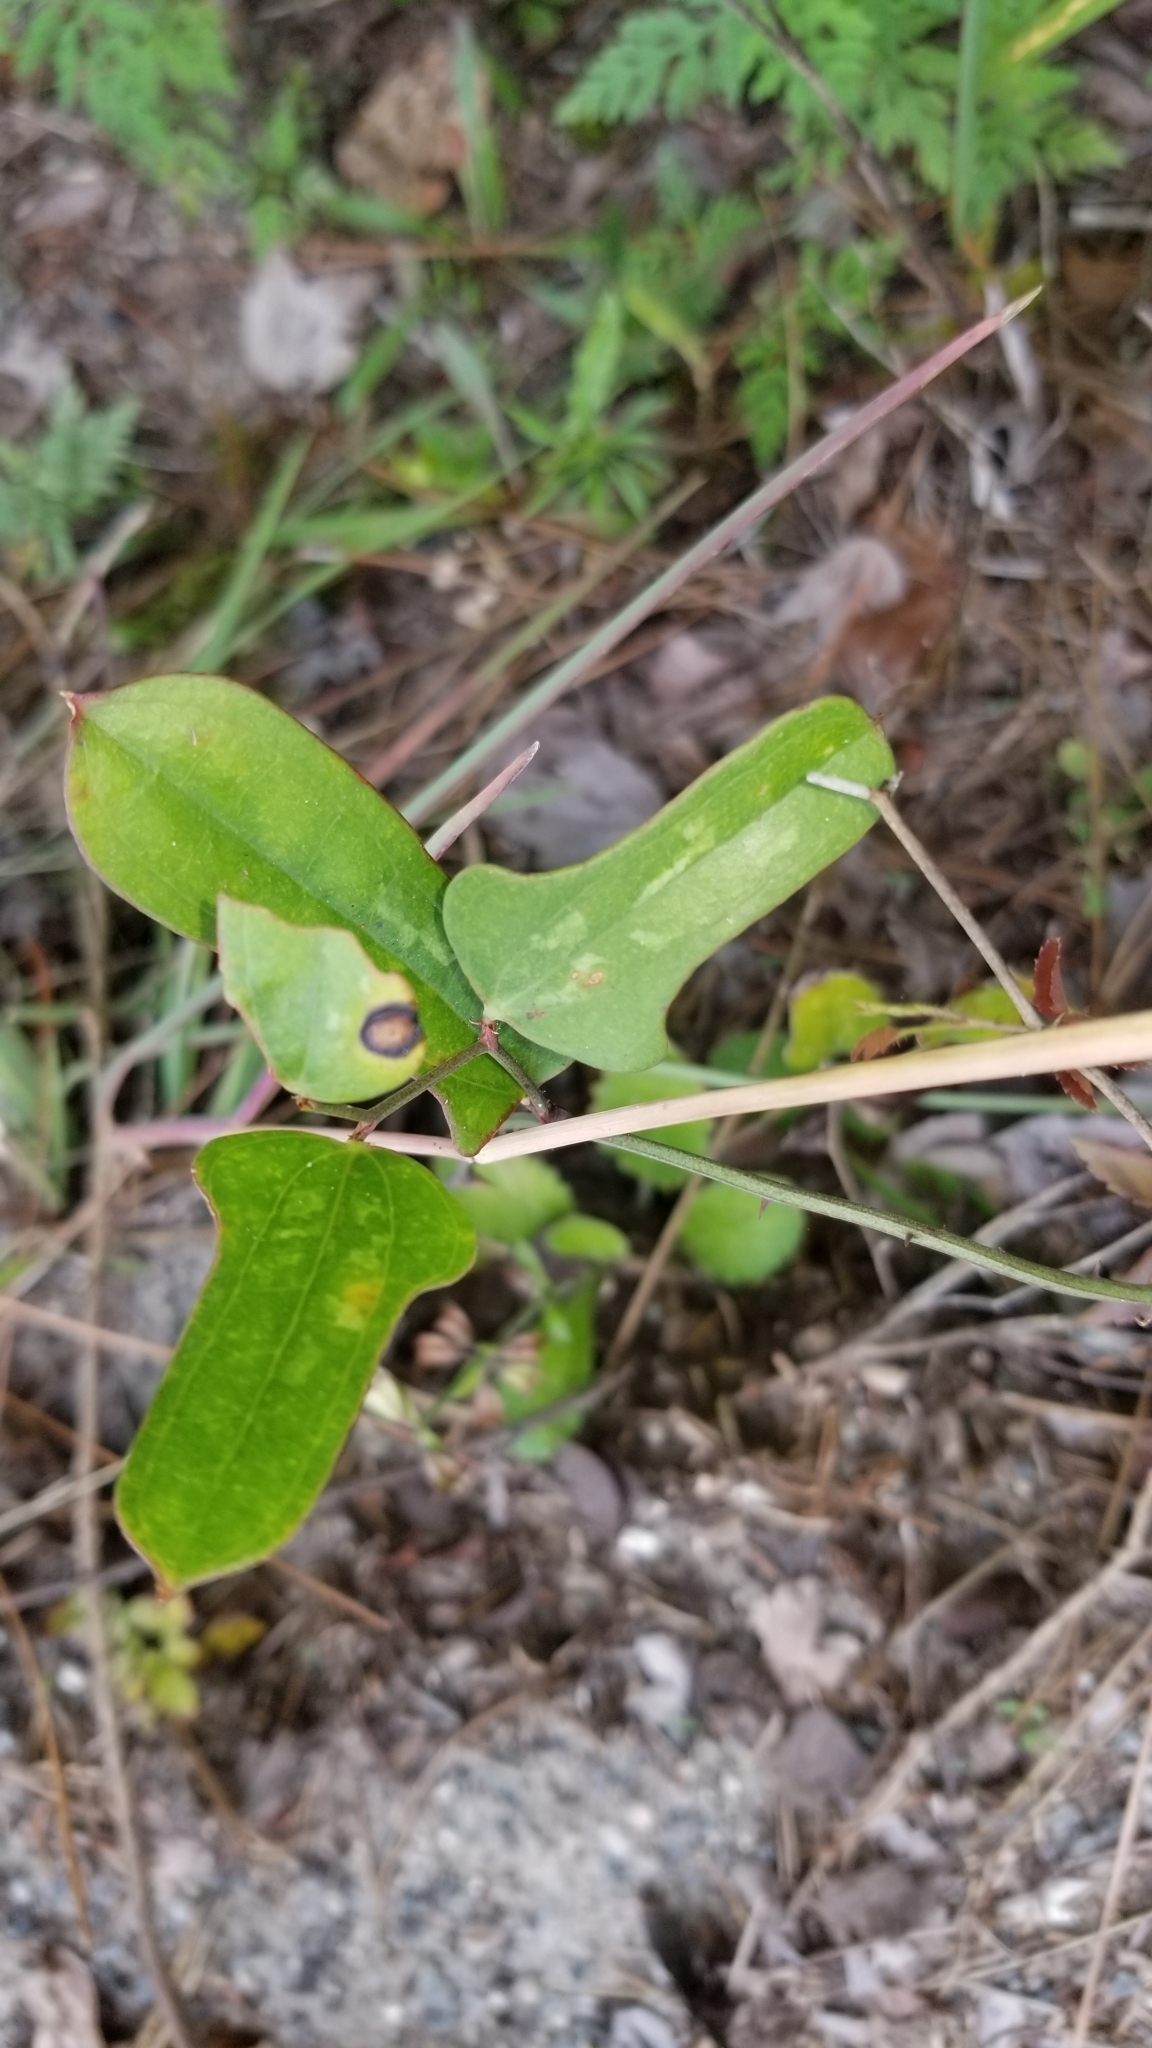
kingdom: Plantae
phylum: Tracheophyta
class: Liliopsida
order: Liliales
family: Smilacaceae
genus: Smilax
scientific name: Smilax auriculata
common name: Wild bamboo
